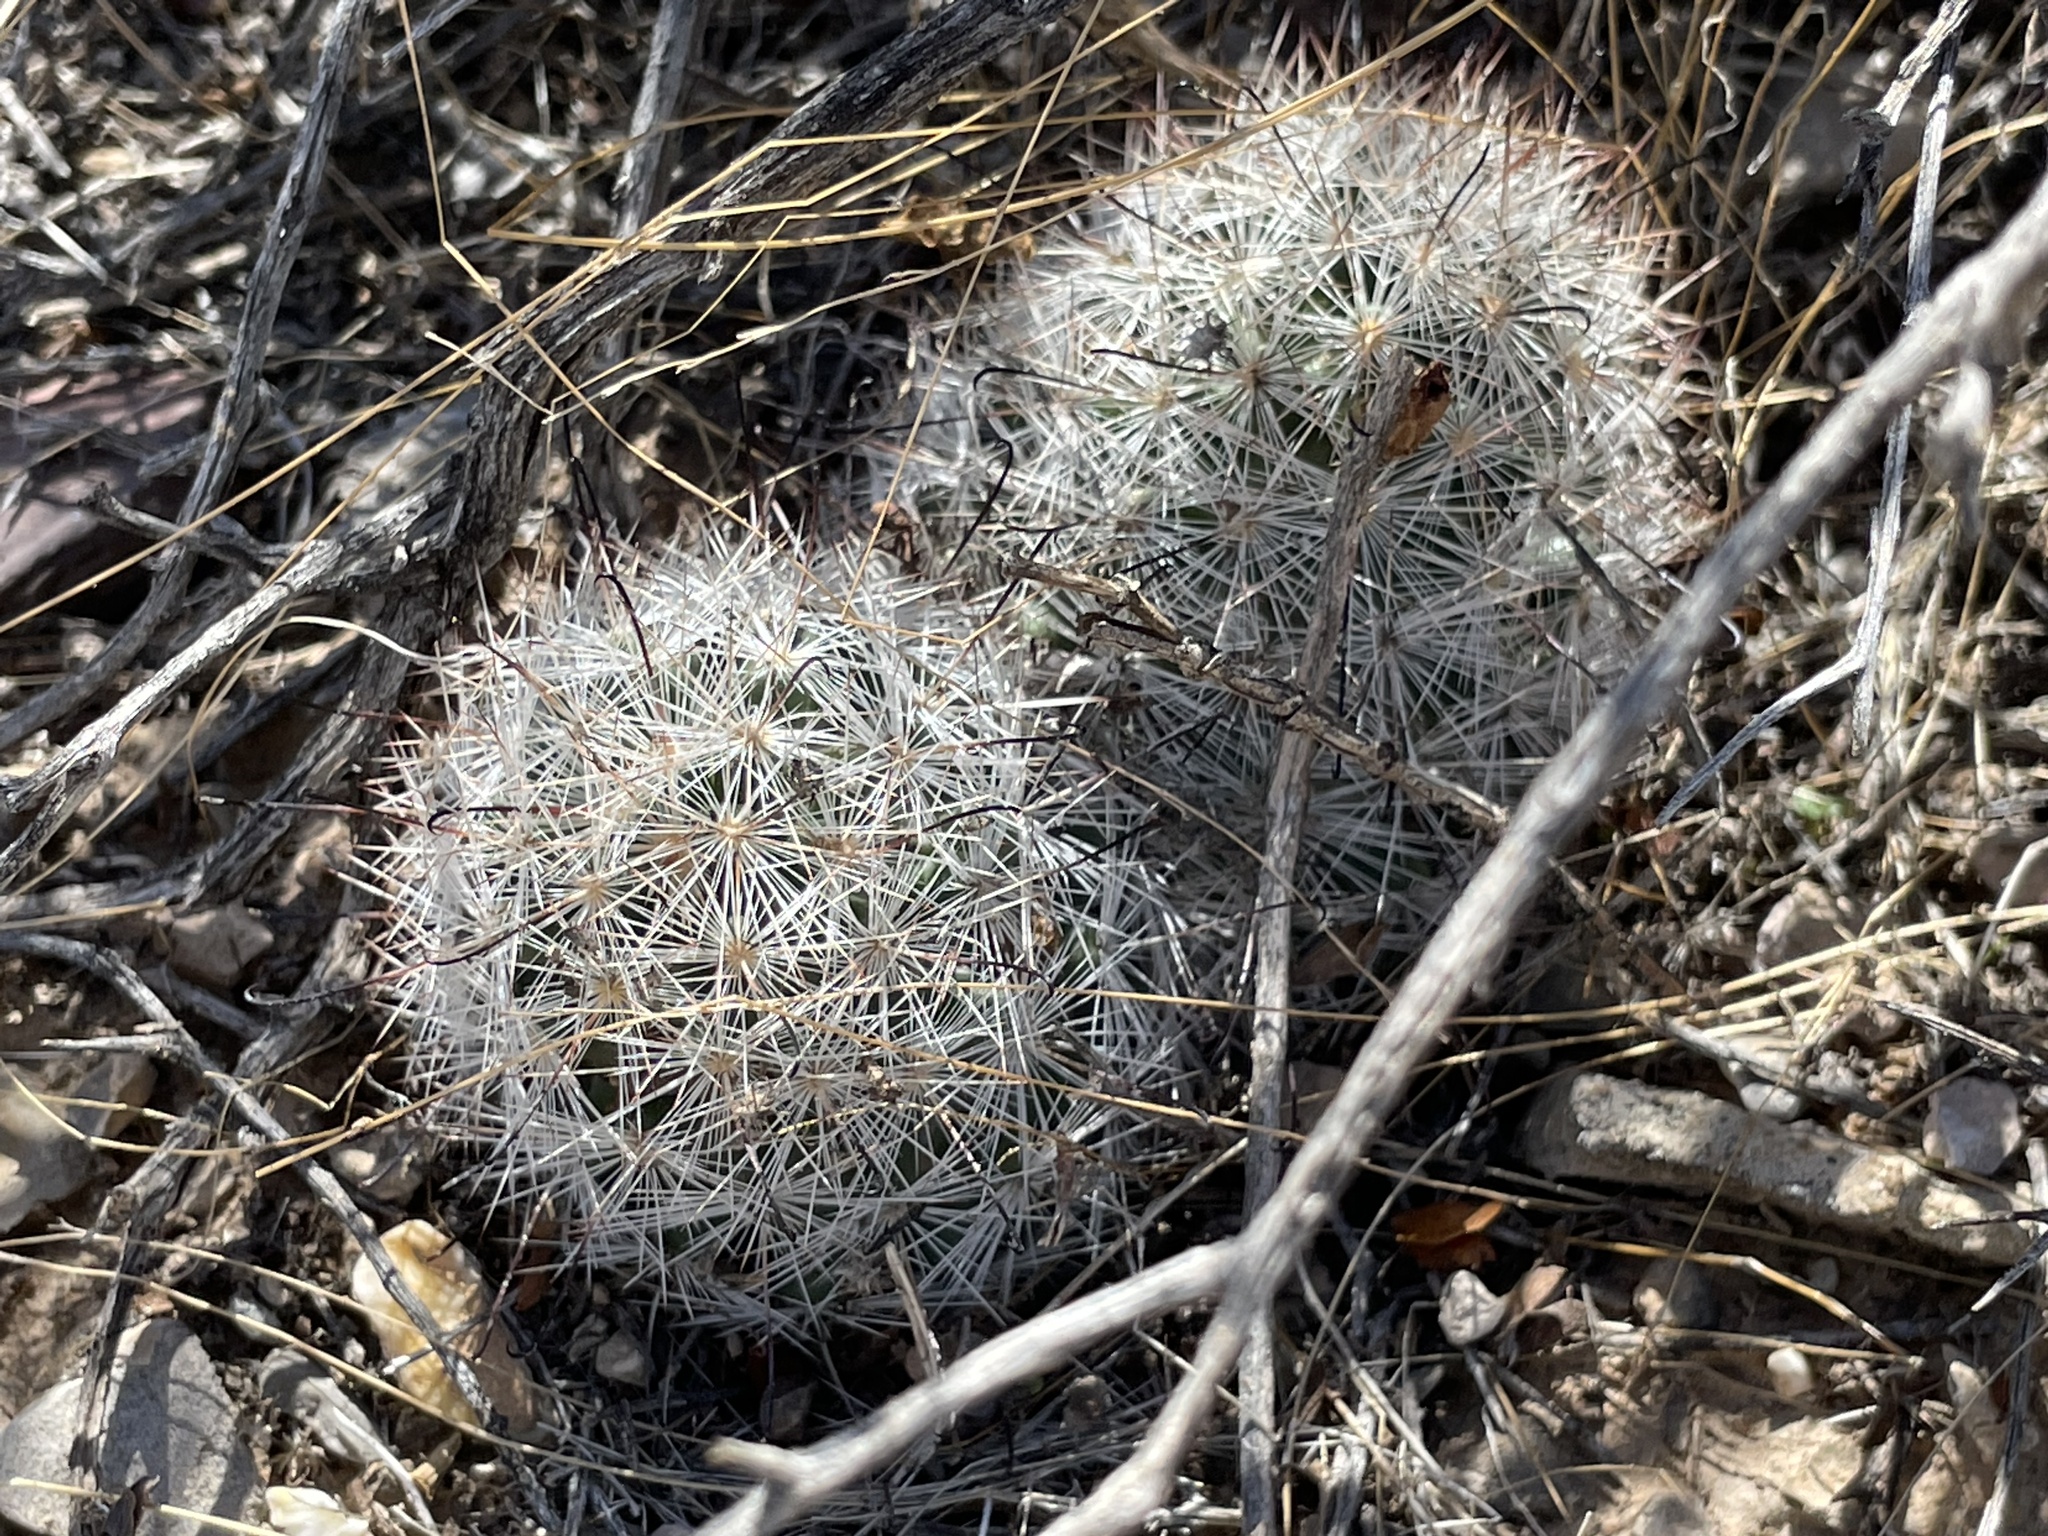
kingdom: Plantae
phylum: Tracheophyta
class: Magnoliopsida
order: Caryophyllales
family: Cactaceae
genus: Cochemiea
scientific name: Cochemiea tetrancistra
